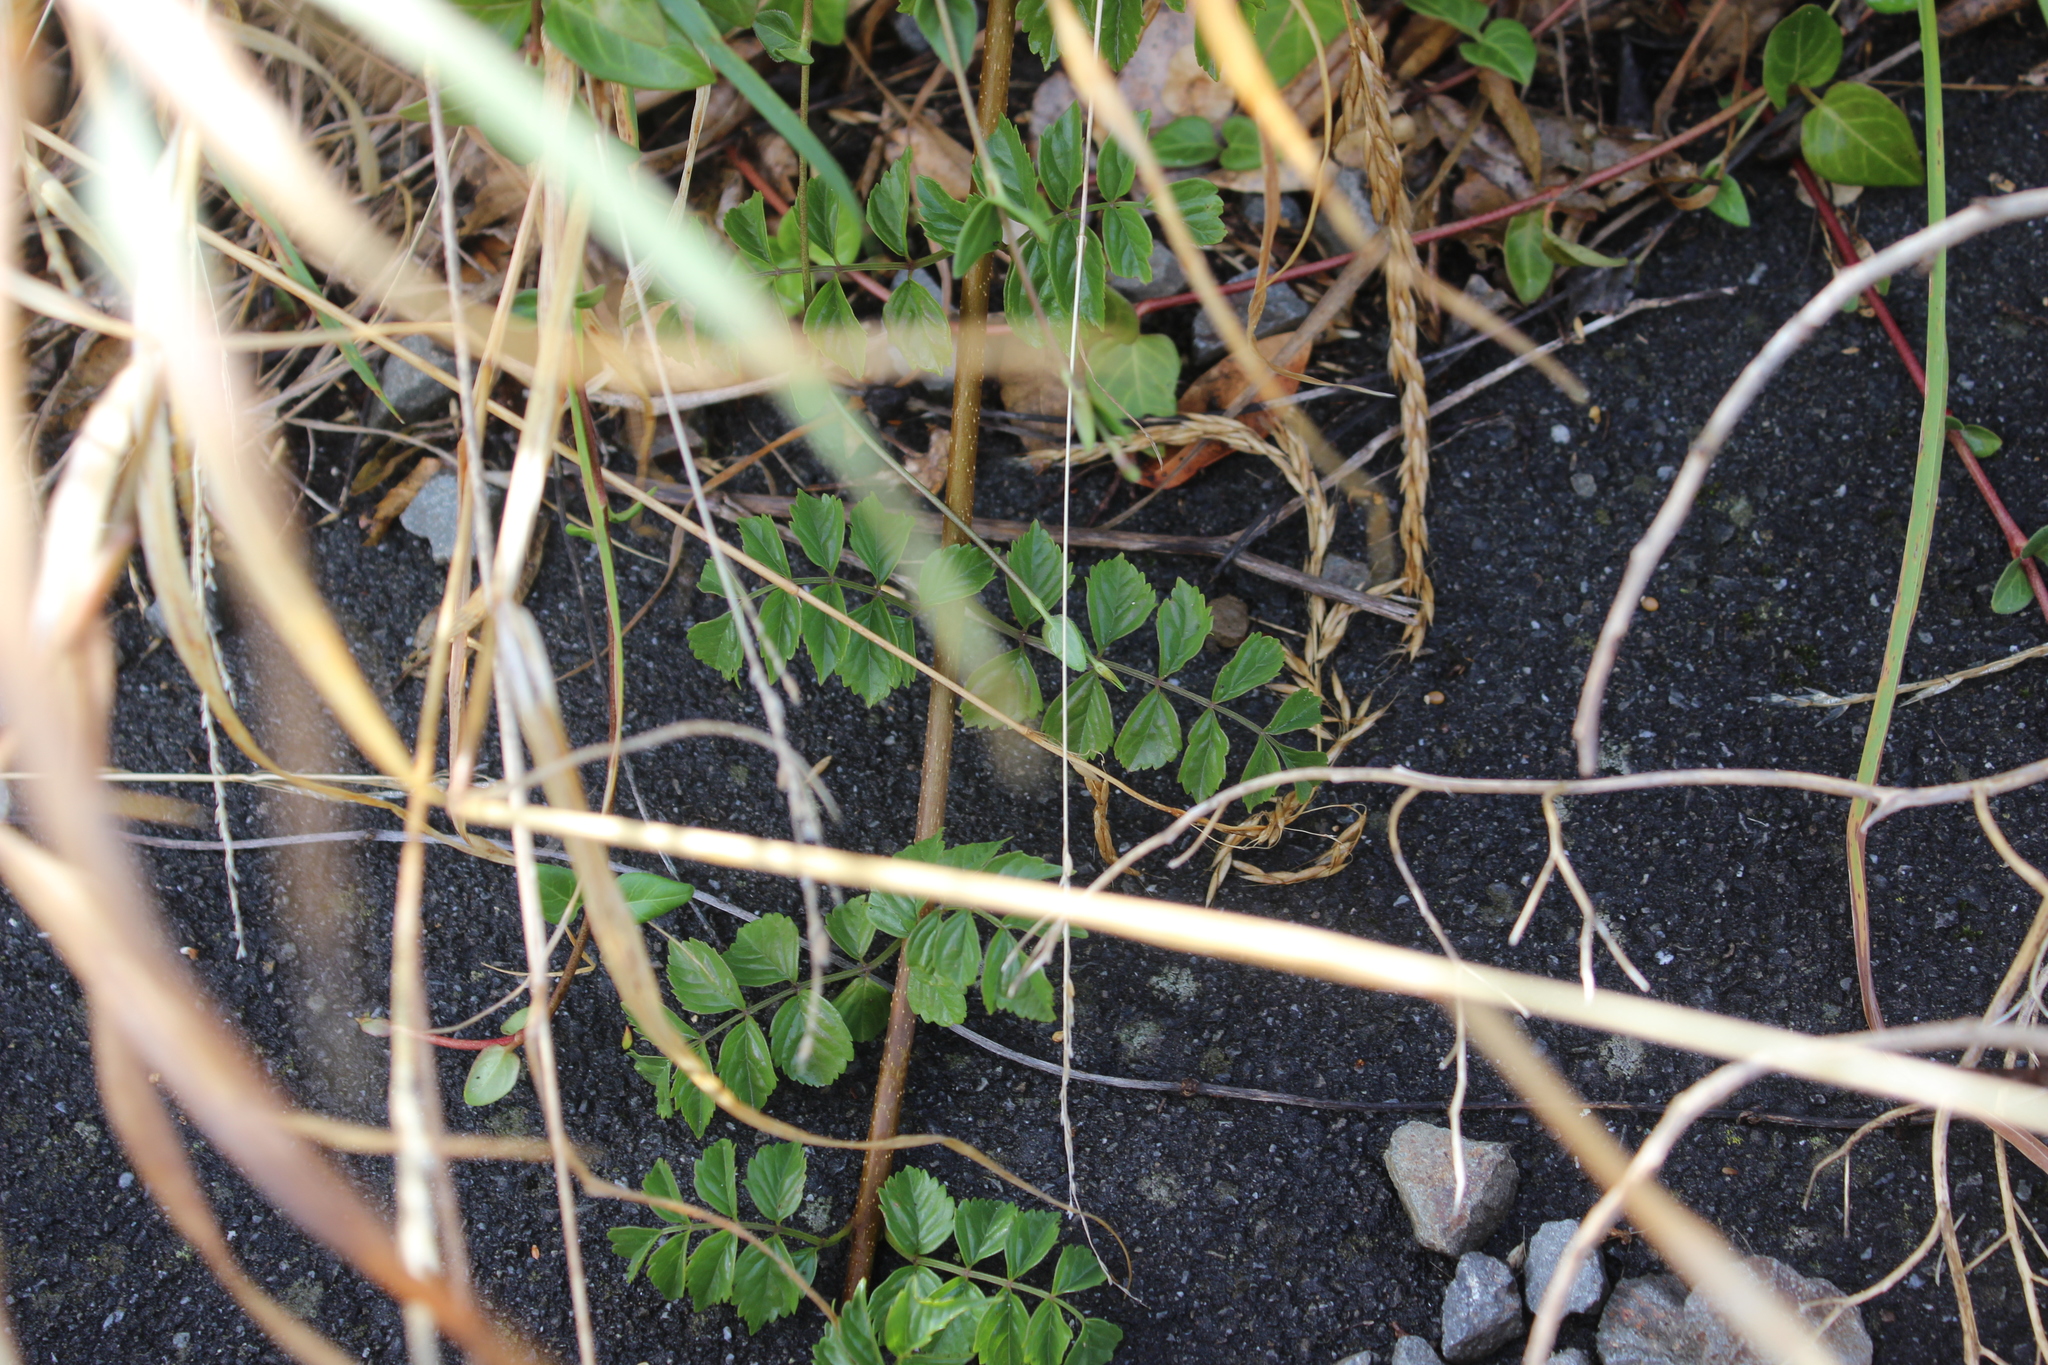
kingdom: Plantae
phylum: Tracheophyta
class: Magnoliopsida
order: Lamiales
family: Bignoniaceae
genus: Tecomaria
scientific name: Tecomaria capensis
